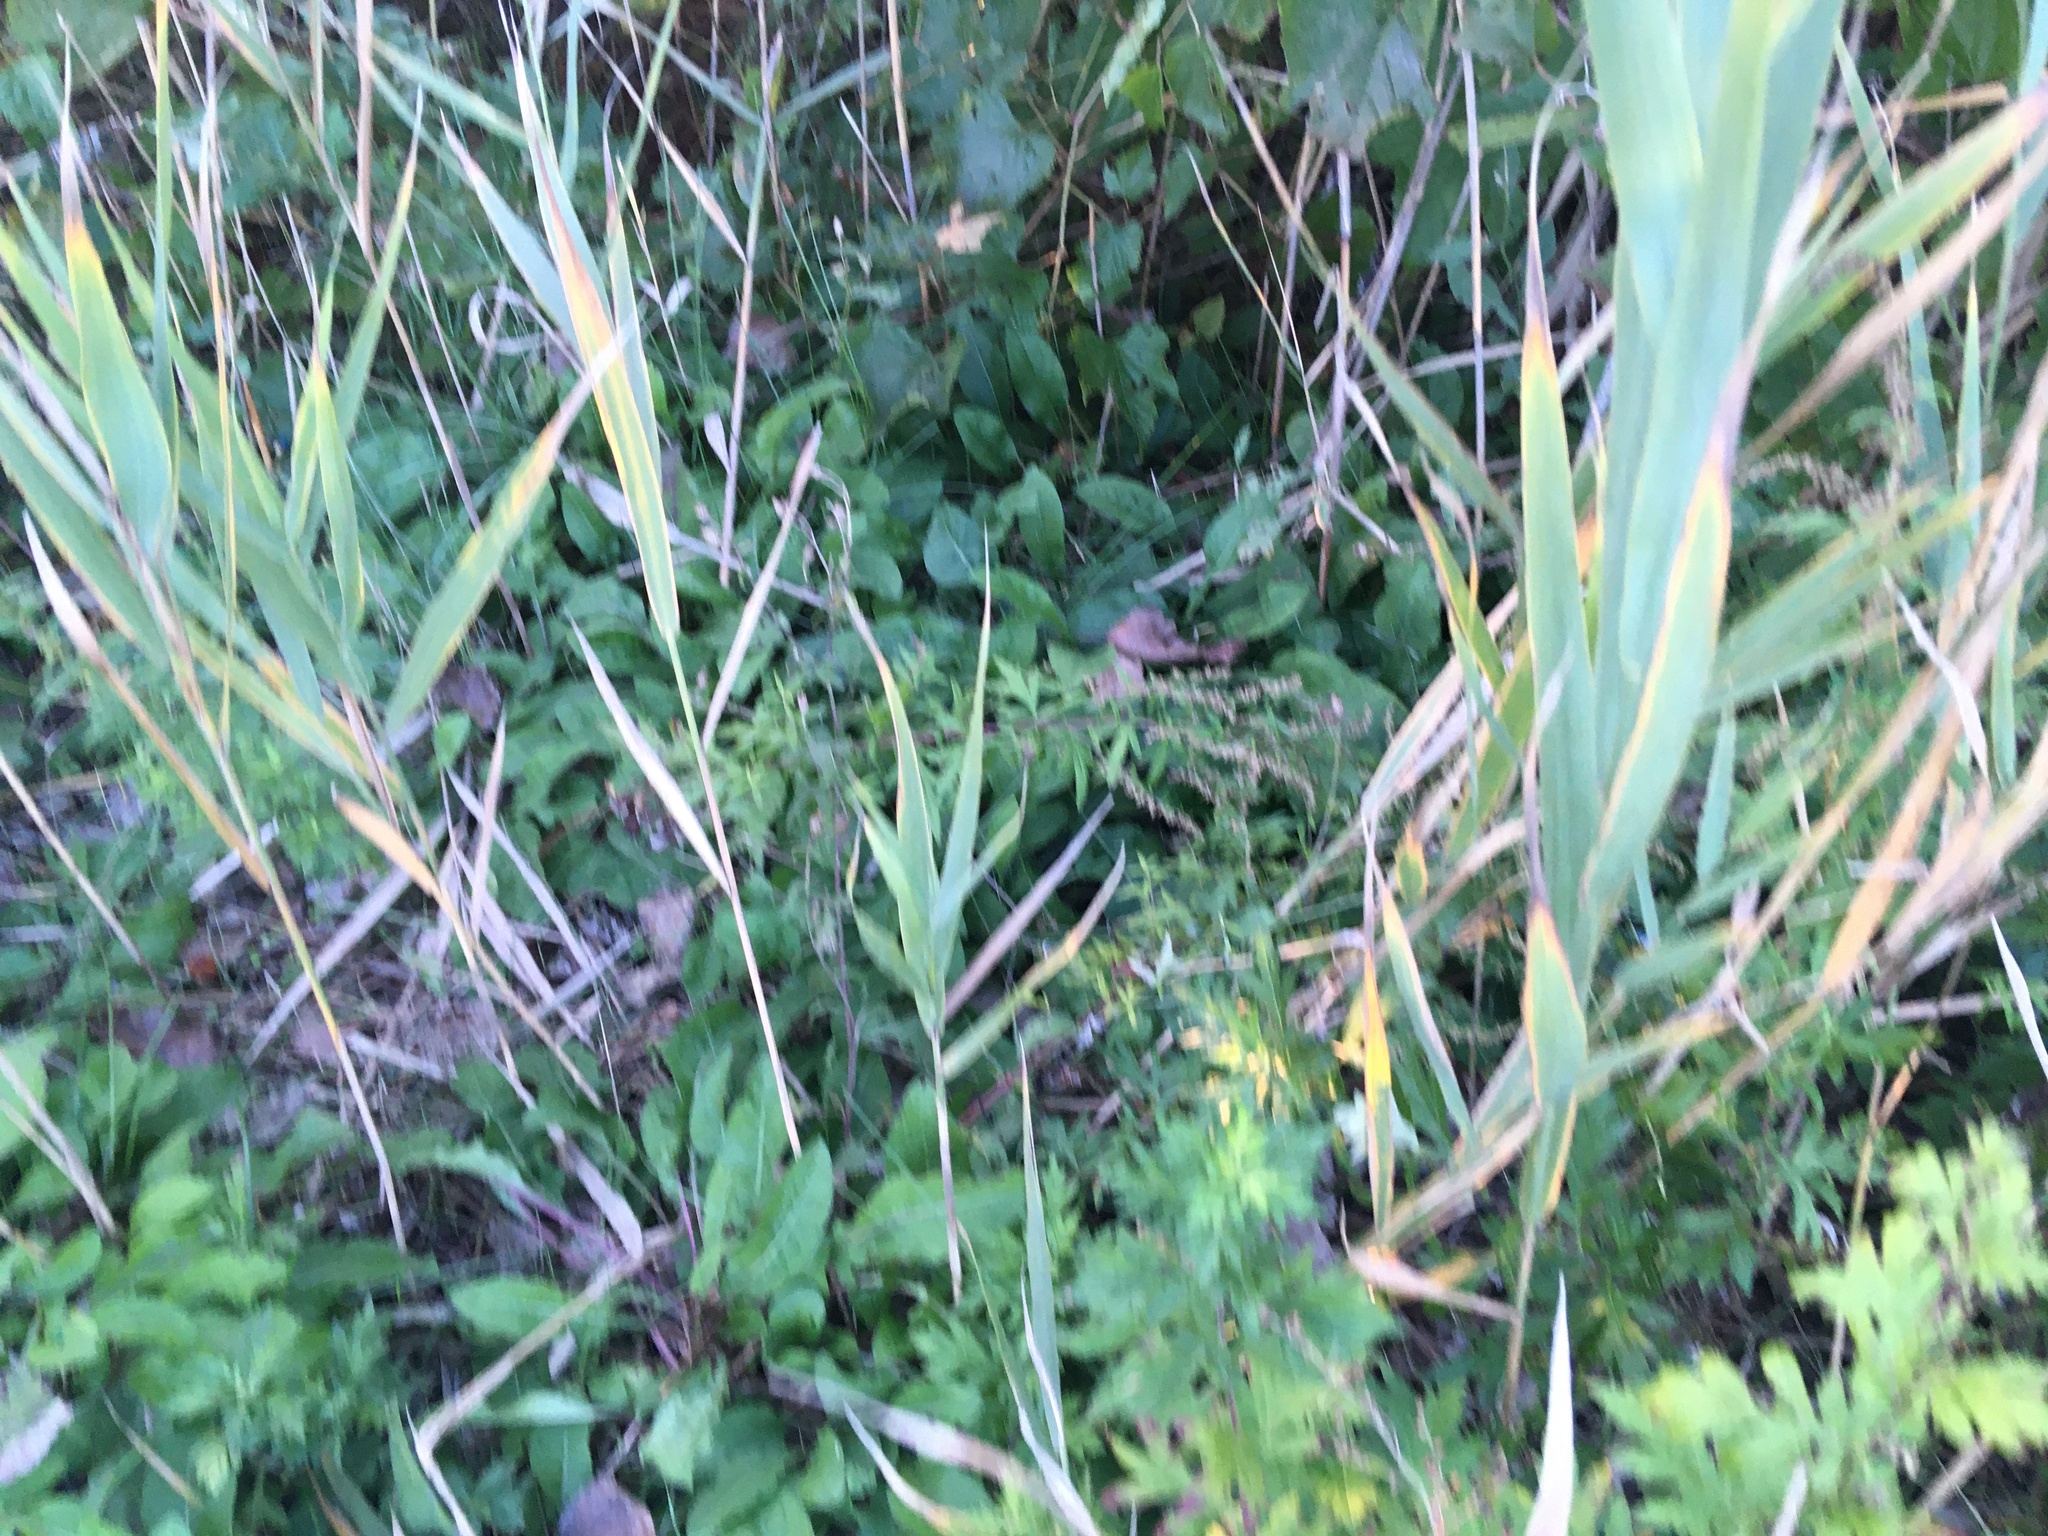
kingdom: Plantae
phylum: Tracheophyta
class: Magnoliopsida
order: Asterales
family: Asteraceae
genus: Artemisia
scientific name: Artemisia vulgaris
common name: Mugwort
